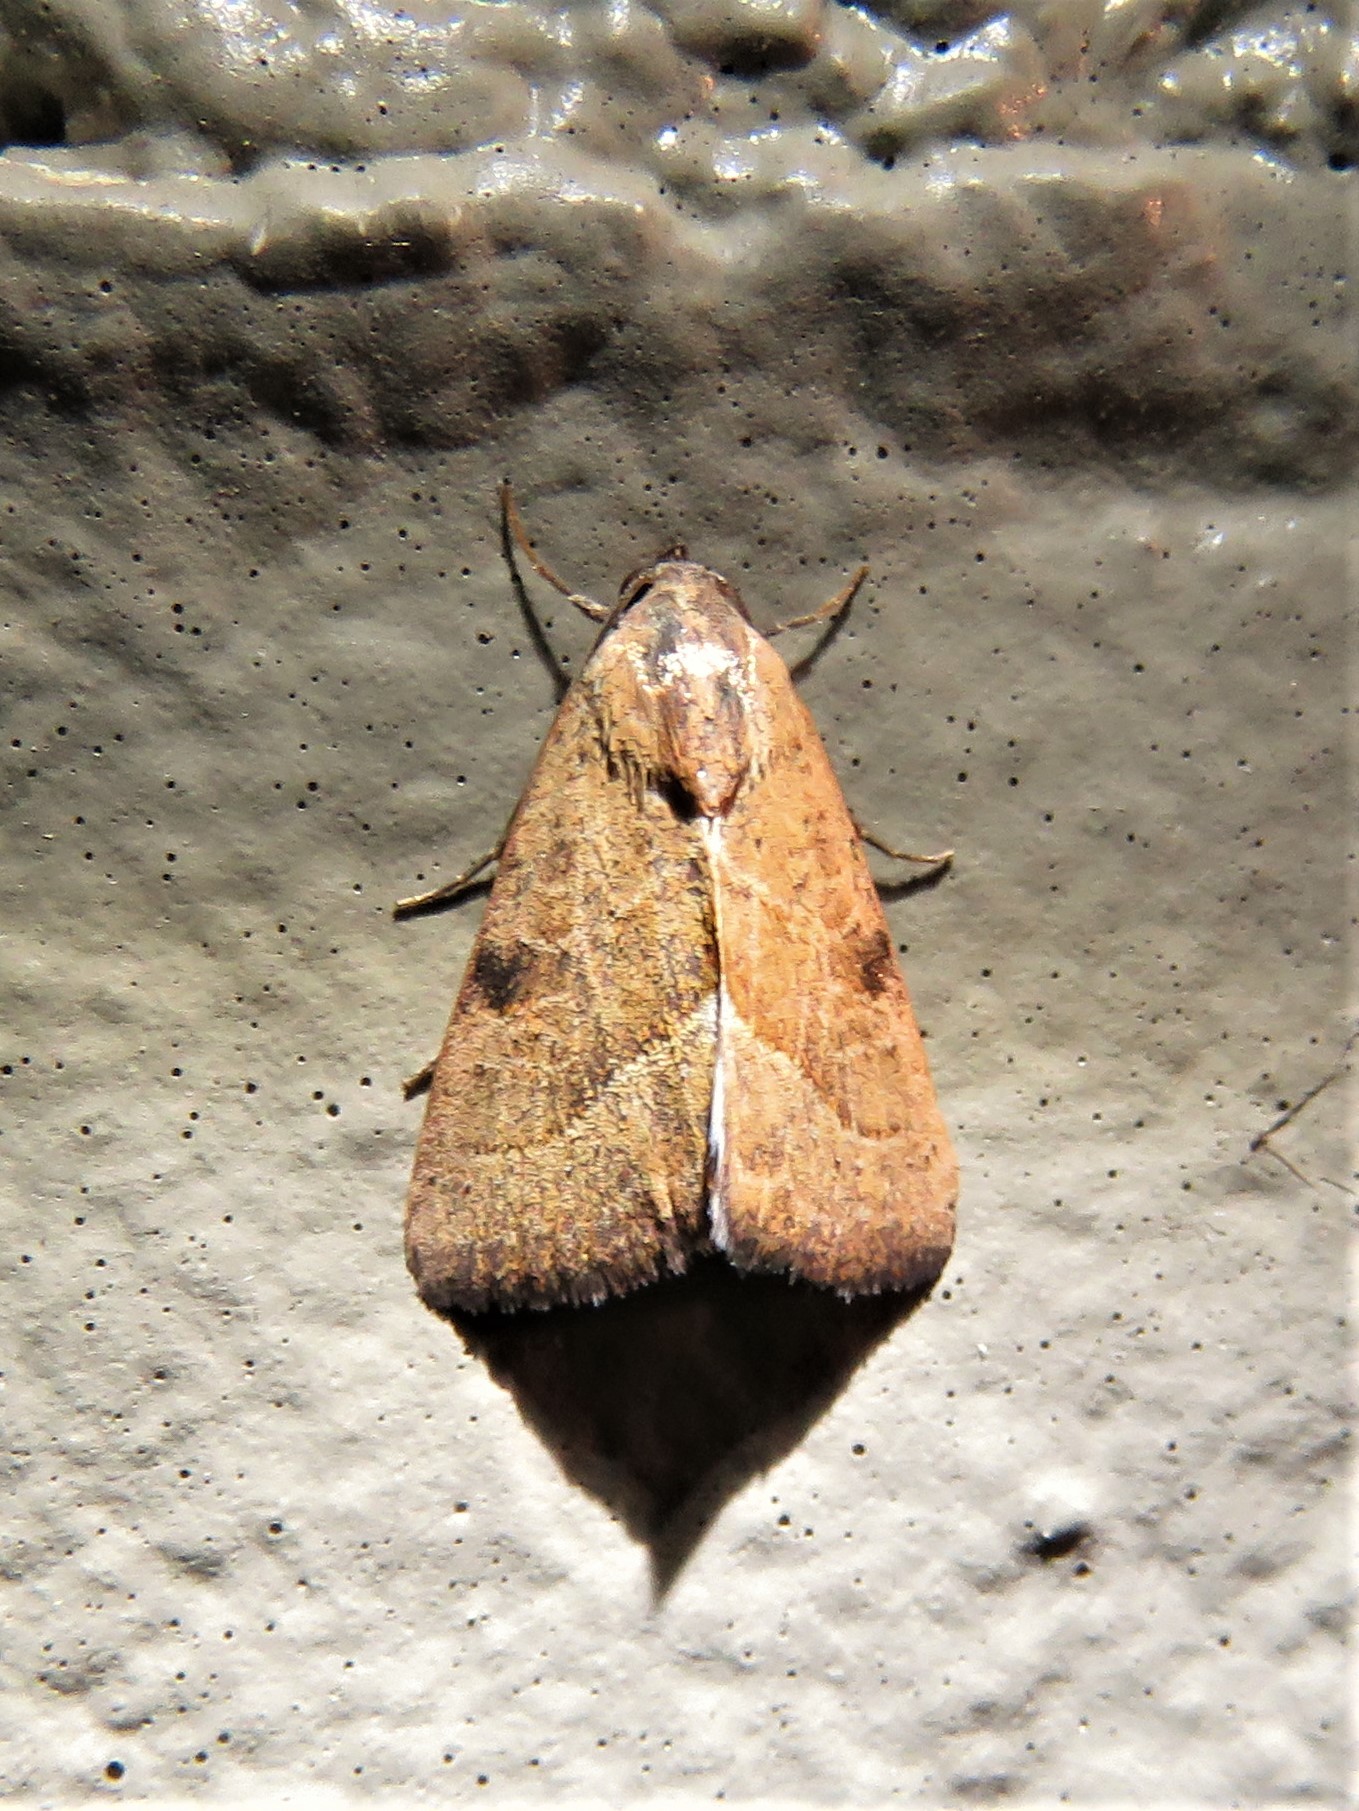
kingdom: Animalia
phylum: Arthropoda
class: Insecta
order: Lepidoptera
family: Noctuidae
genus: Galgula
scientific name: Galgula partita
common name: Wedgeling
